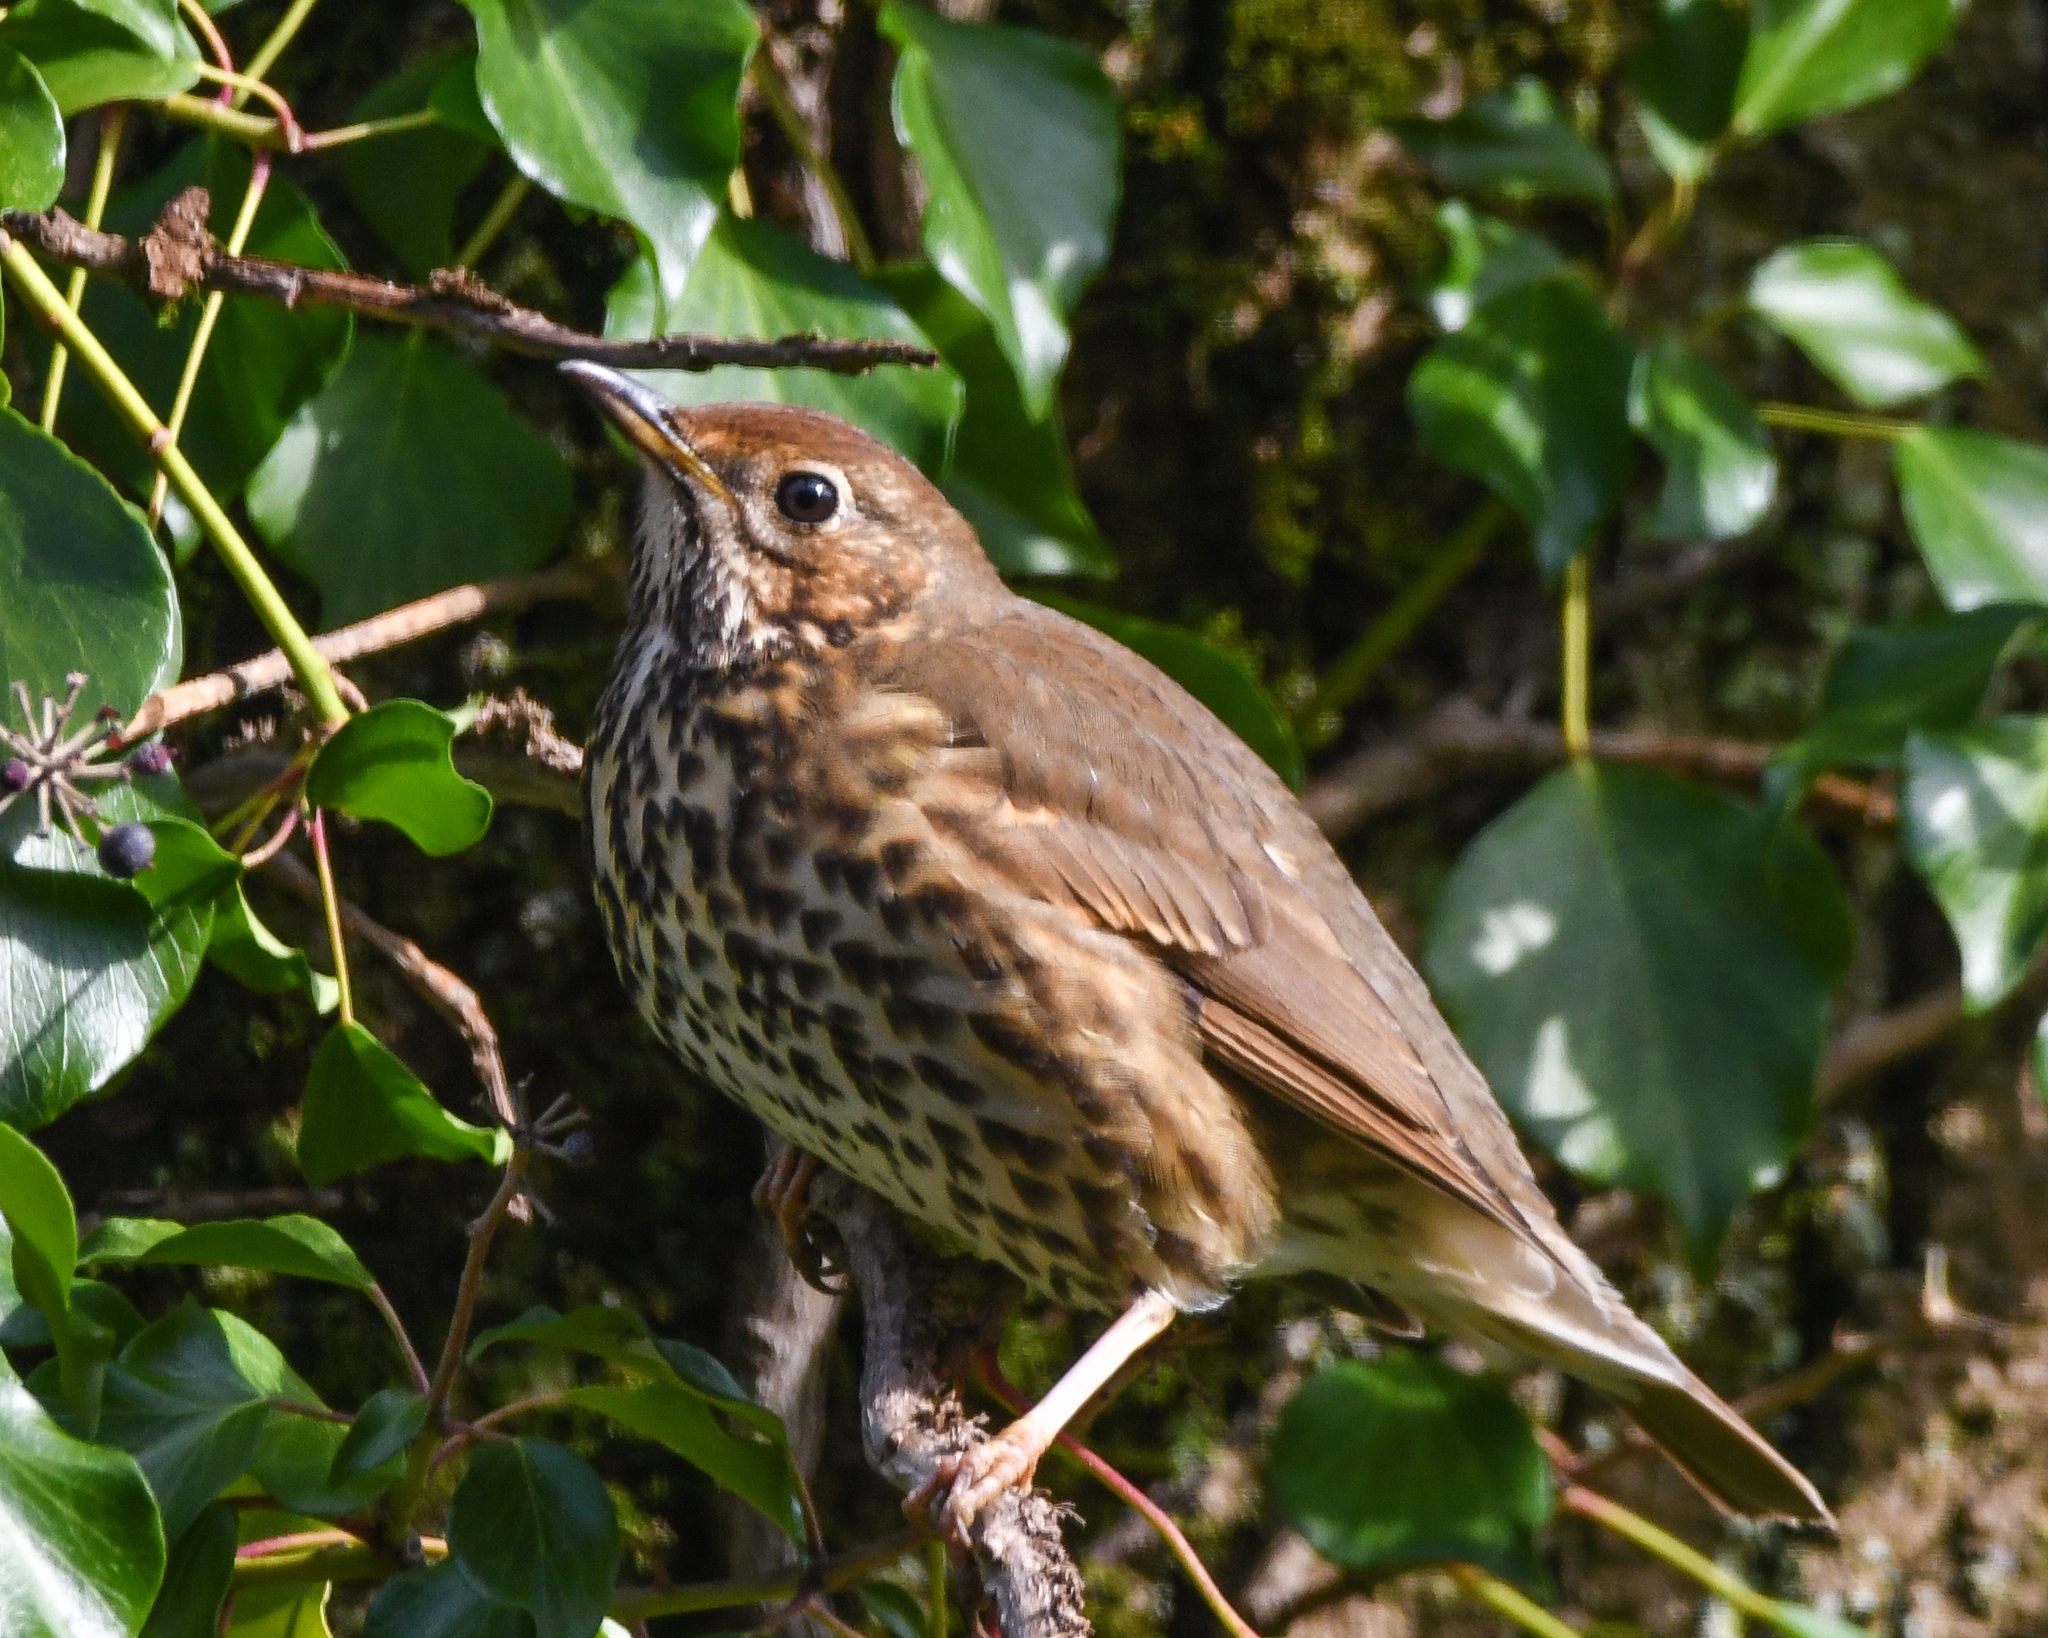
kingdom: Animalia
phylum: Chordata
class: Aves
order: Passeriformes
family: Turdidae
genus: Turdus
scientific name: Turdus philomelos
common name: Song thrush
